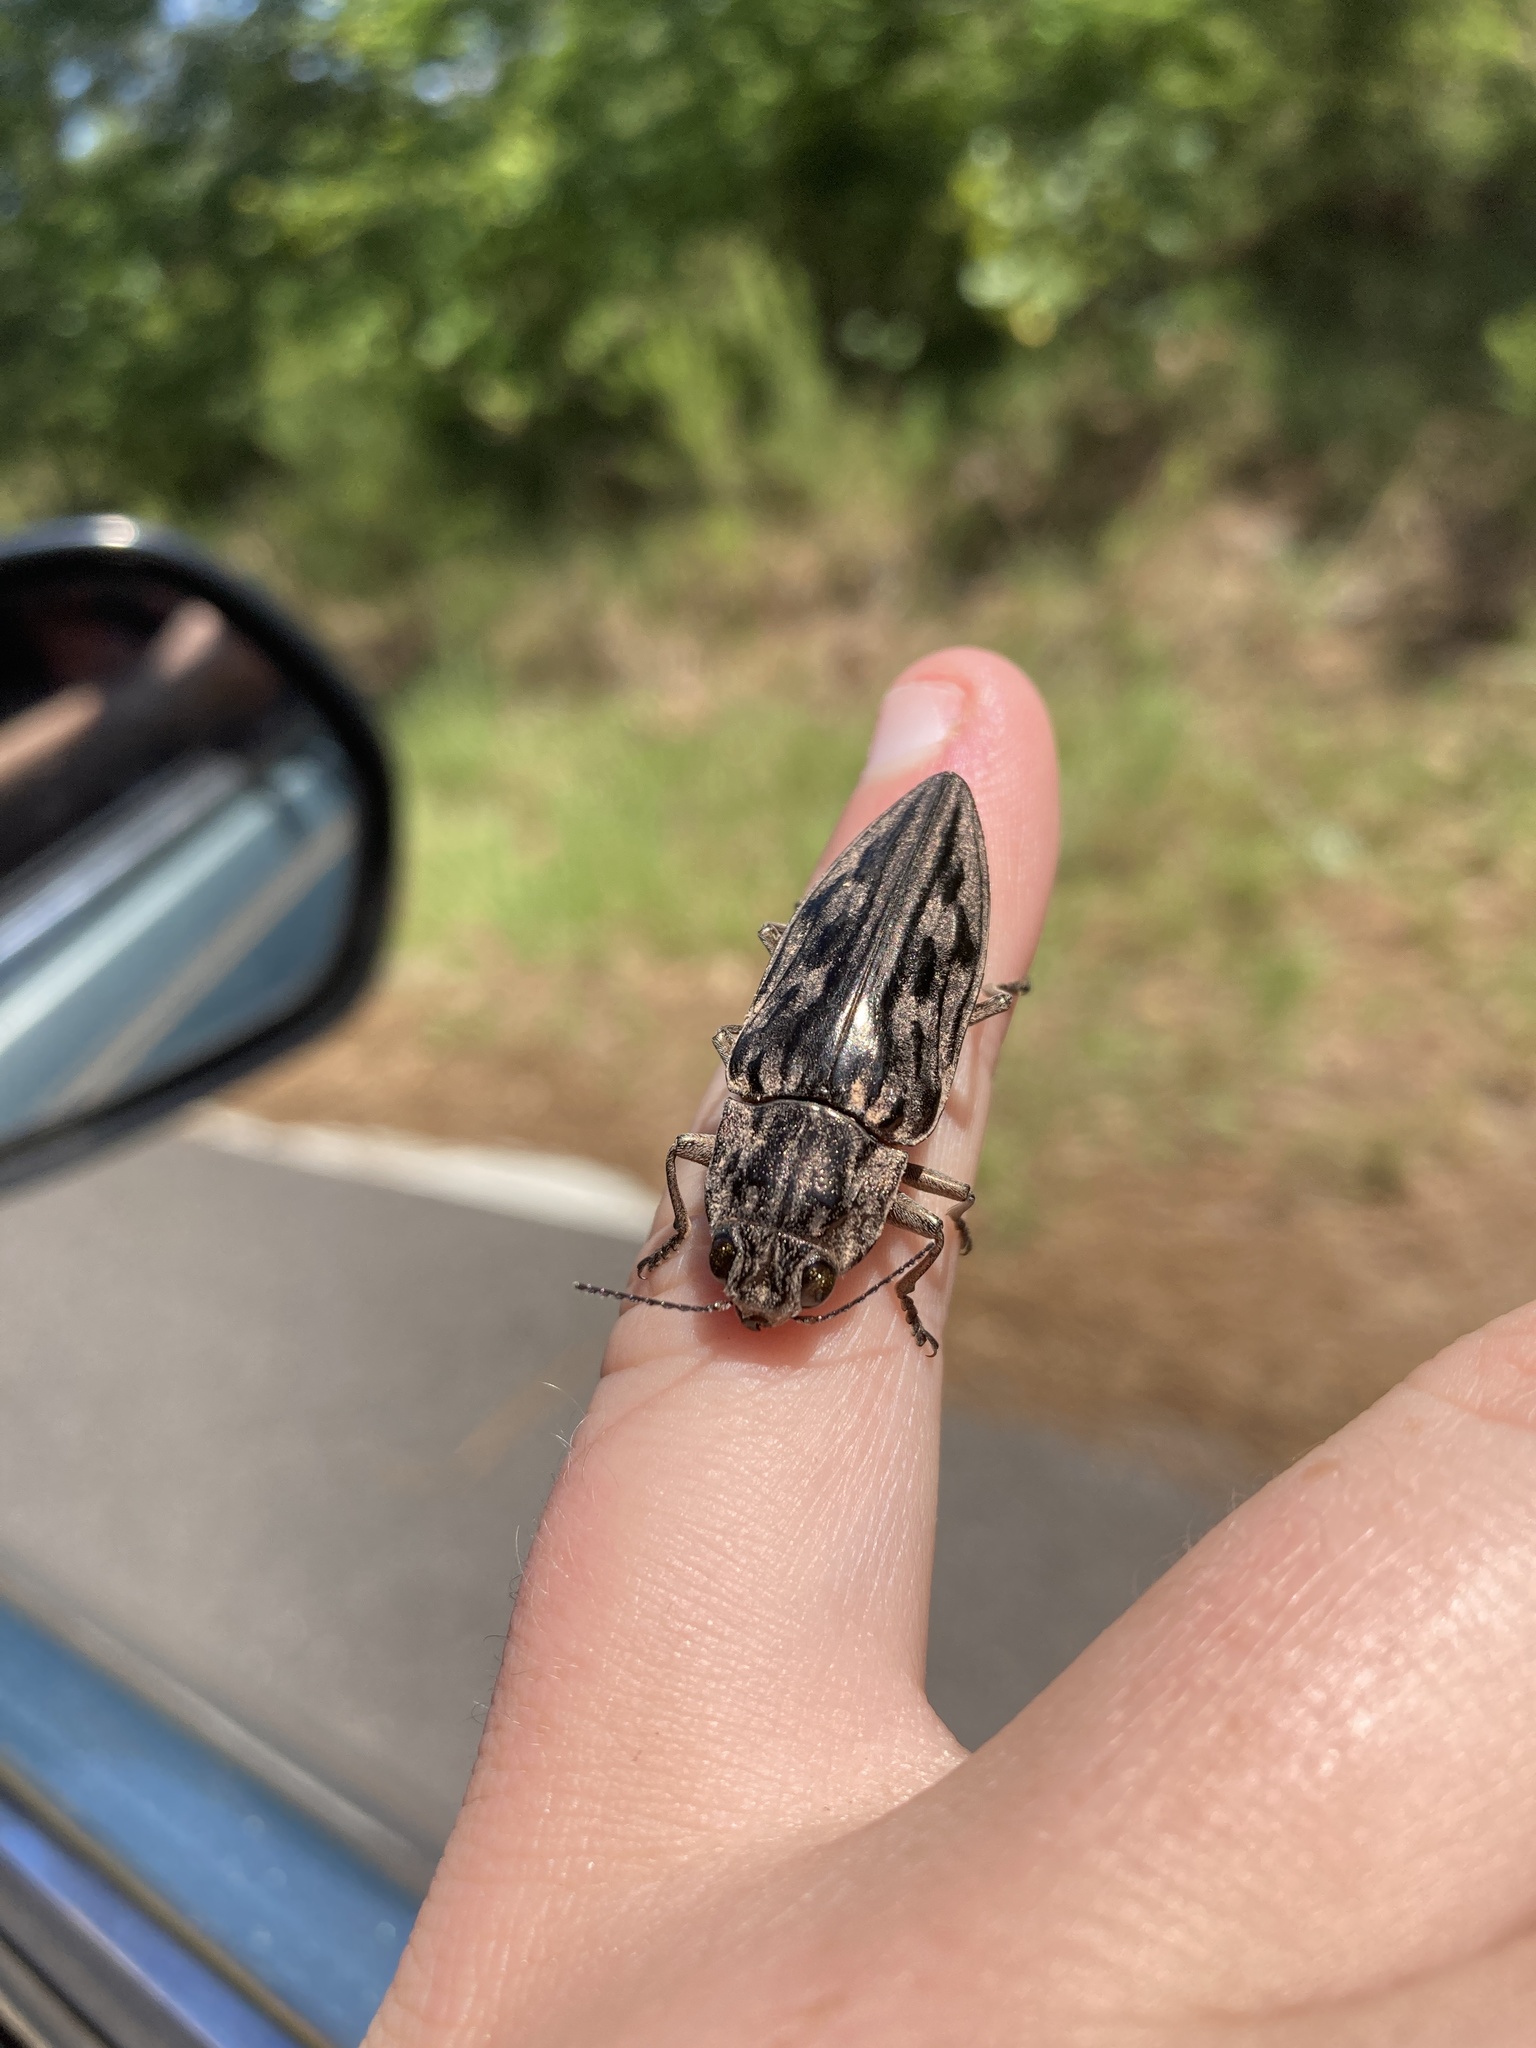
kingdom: Animalia
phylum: Arthropoda
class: Insecta
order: Coleoptera
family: Buprestidae
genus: Chalcophora
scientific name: Chalcophora virginiensis
